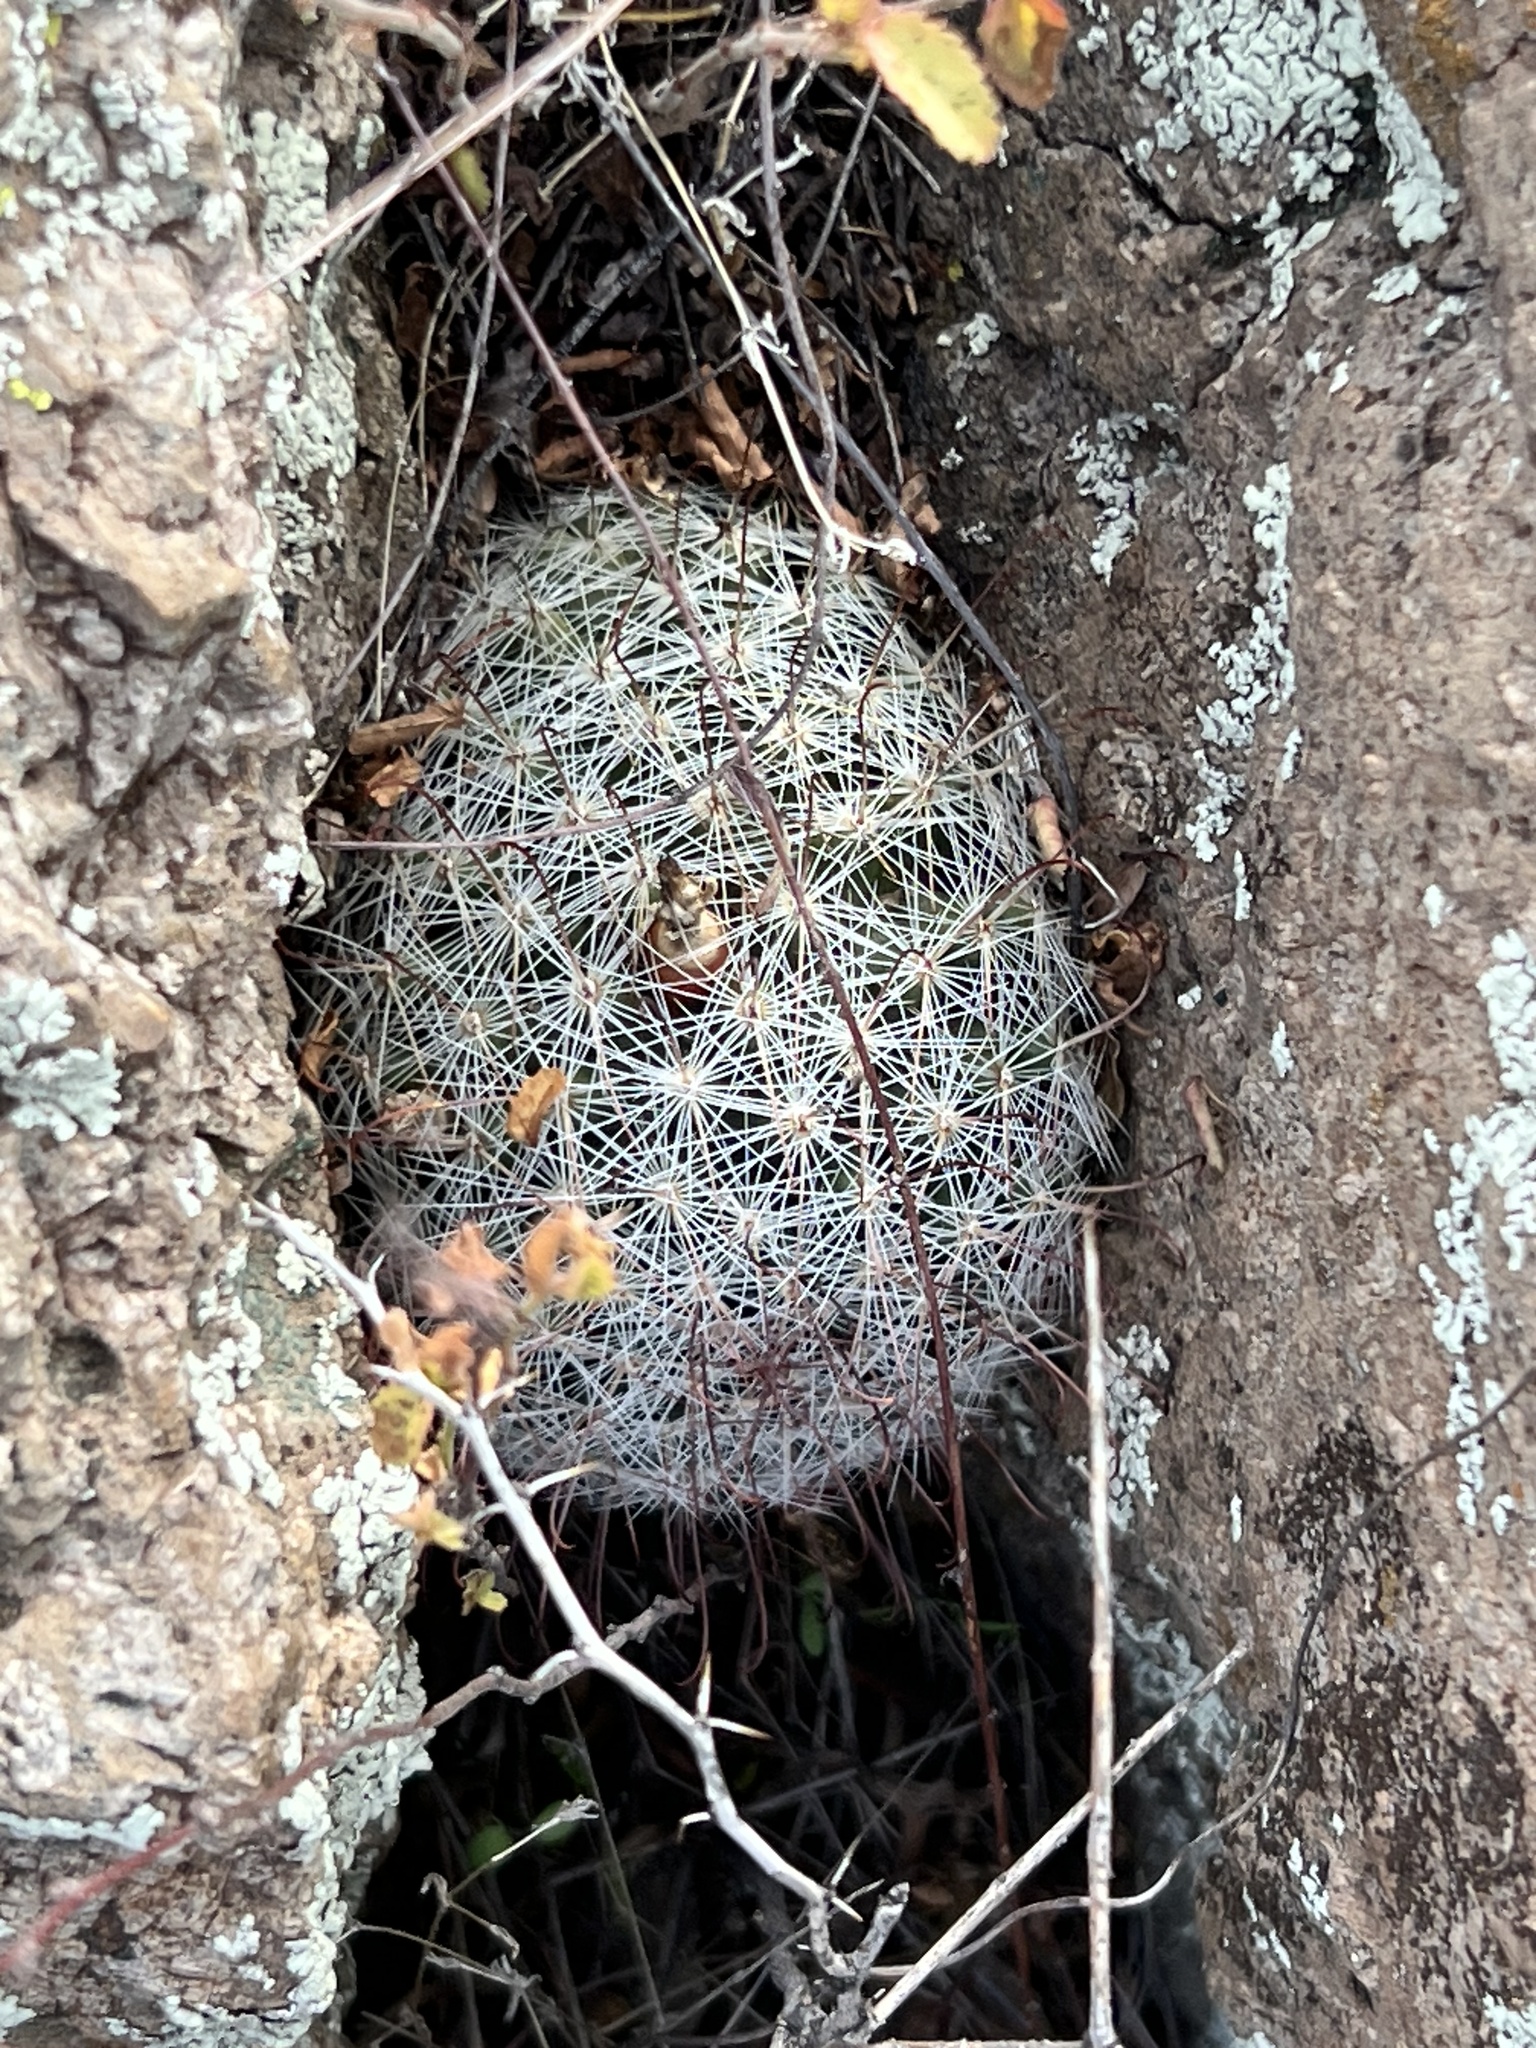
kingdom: Plantae
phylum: Tracheophyta
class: Magnoliopsida
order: Caryophyllales
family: Cactaceae
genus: Cochemiea
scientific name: Cochemiea grahamii
